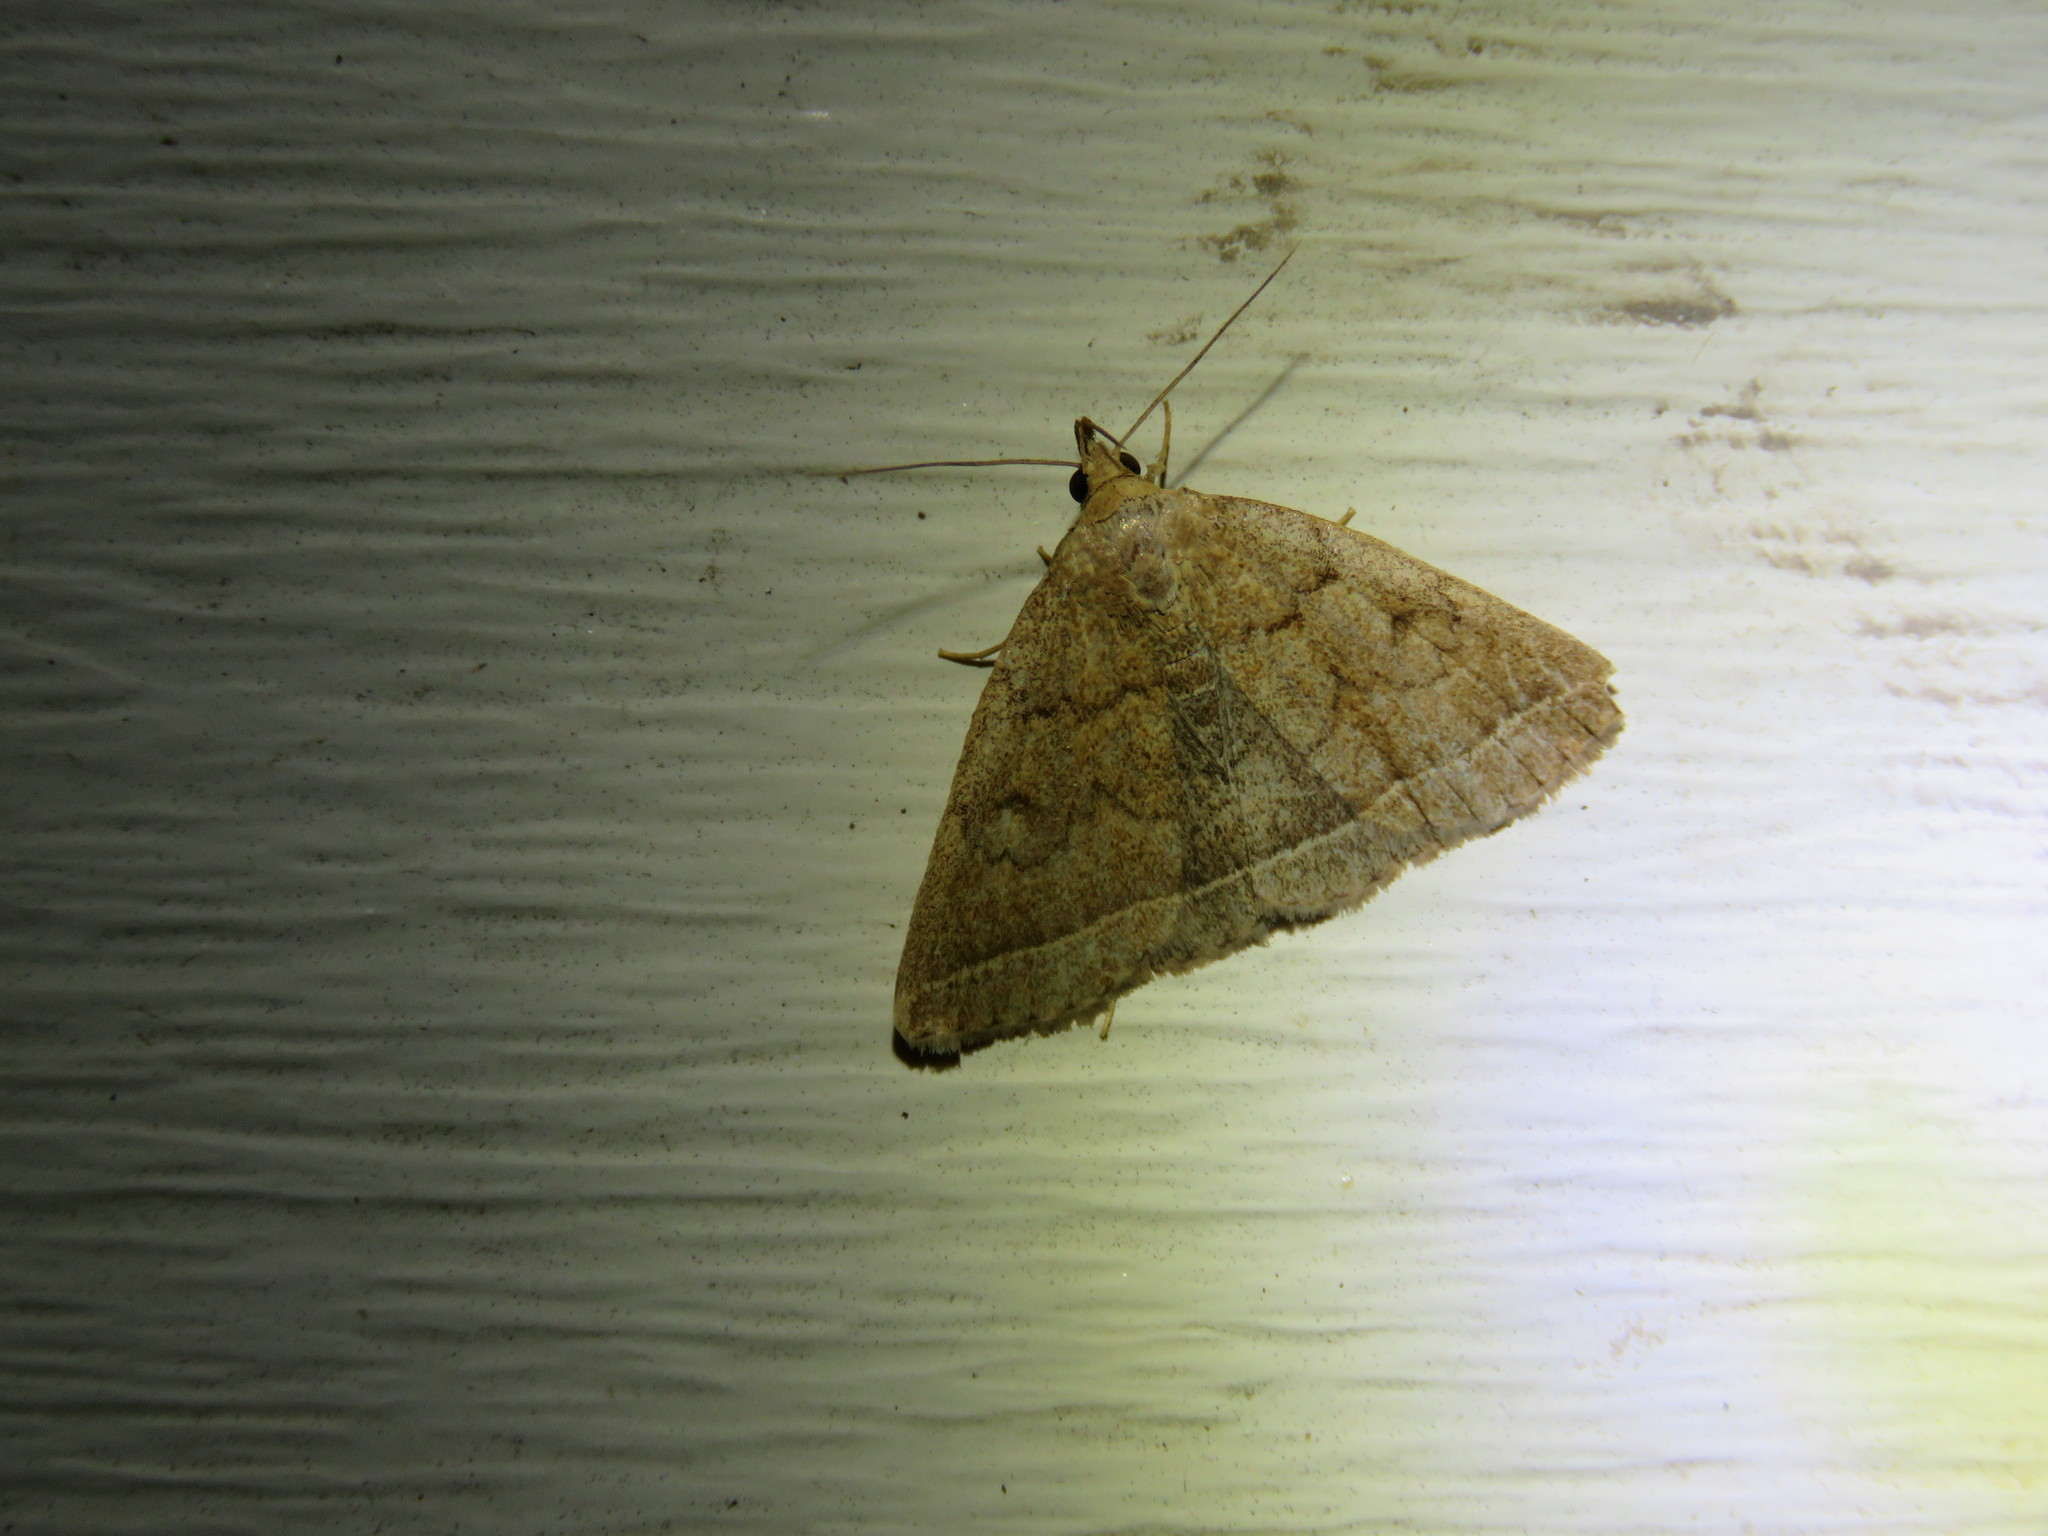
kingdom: Animalia
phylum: Arthropoda
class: Insecta
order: Lepidoptera
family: Erebidae
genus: Zanclognatha
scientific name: Zanclognatha jacchusalis
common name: Yellowish zanclognatha
